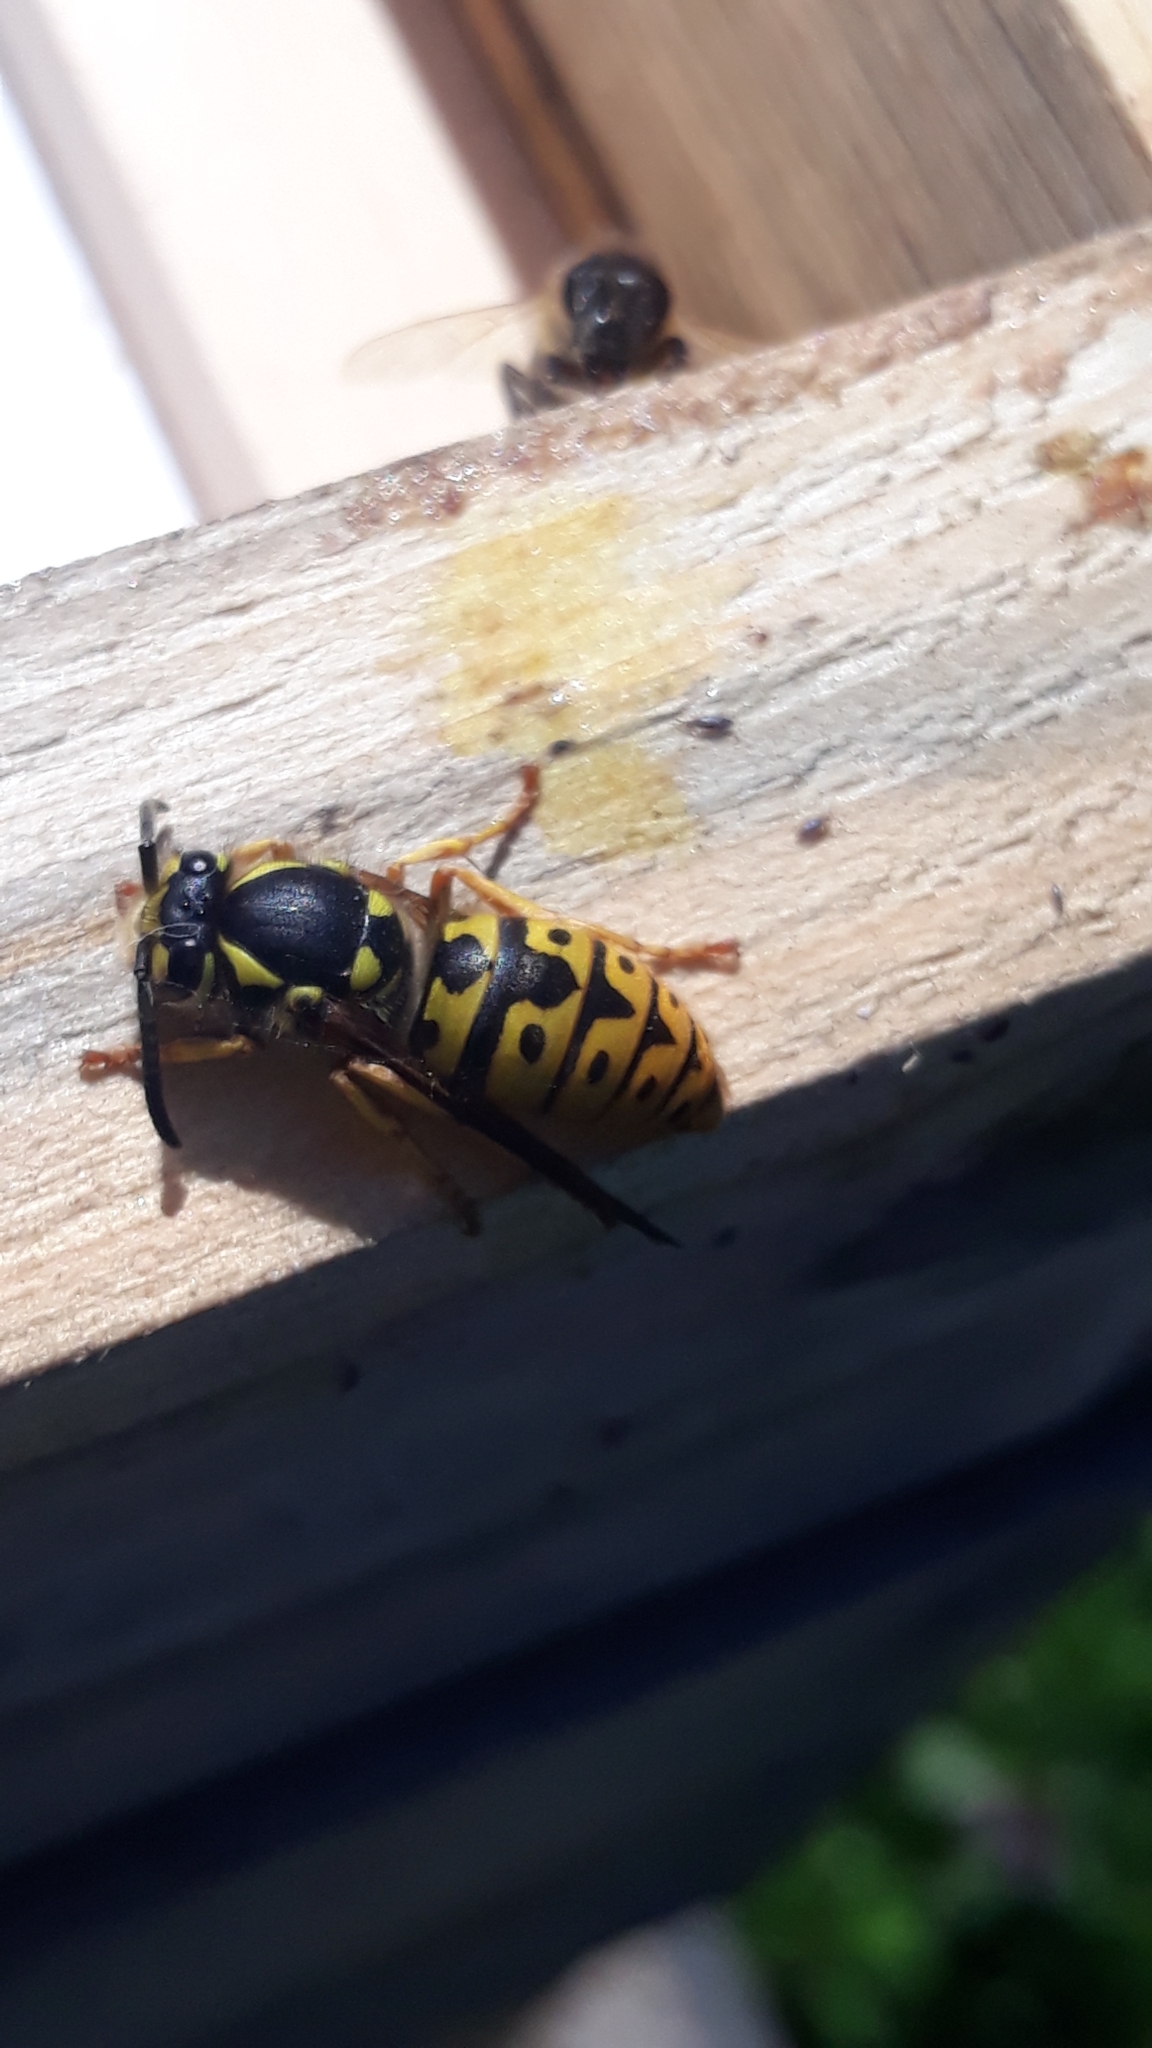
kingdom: Animalia
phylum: Arthropoda
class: Insecta
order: Hymenoptera
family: Vespidae
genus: Vespula
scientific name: Vespula germanica
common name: German wasp
